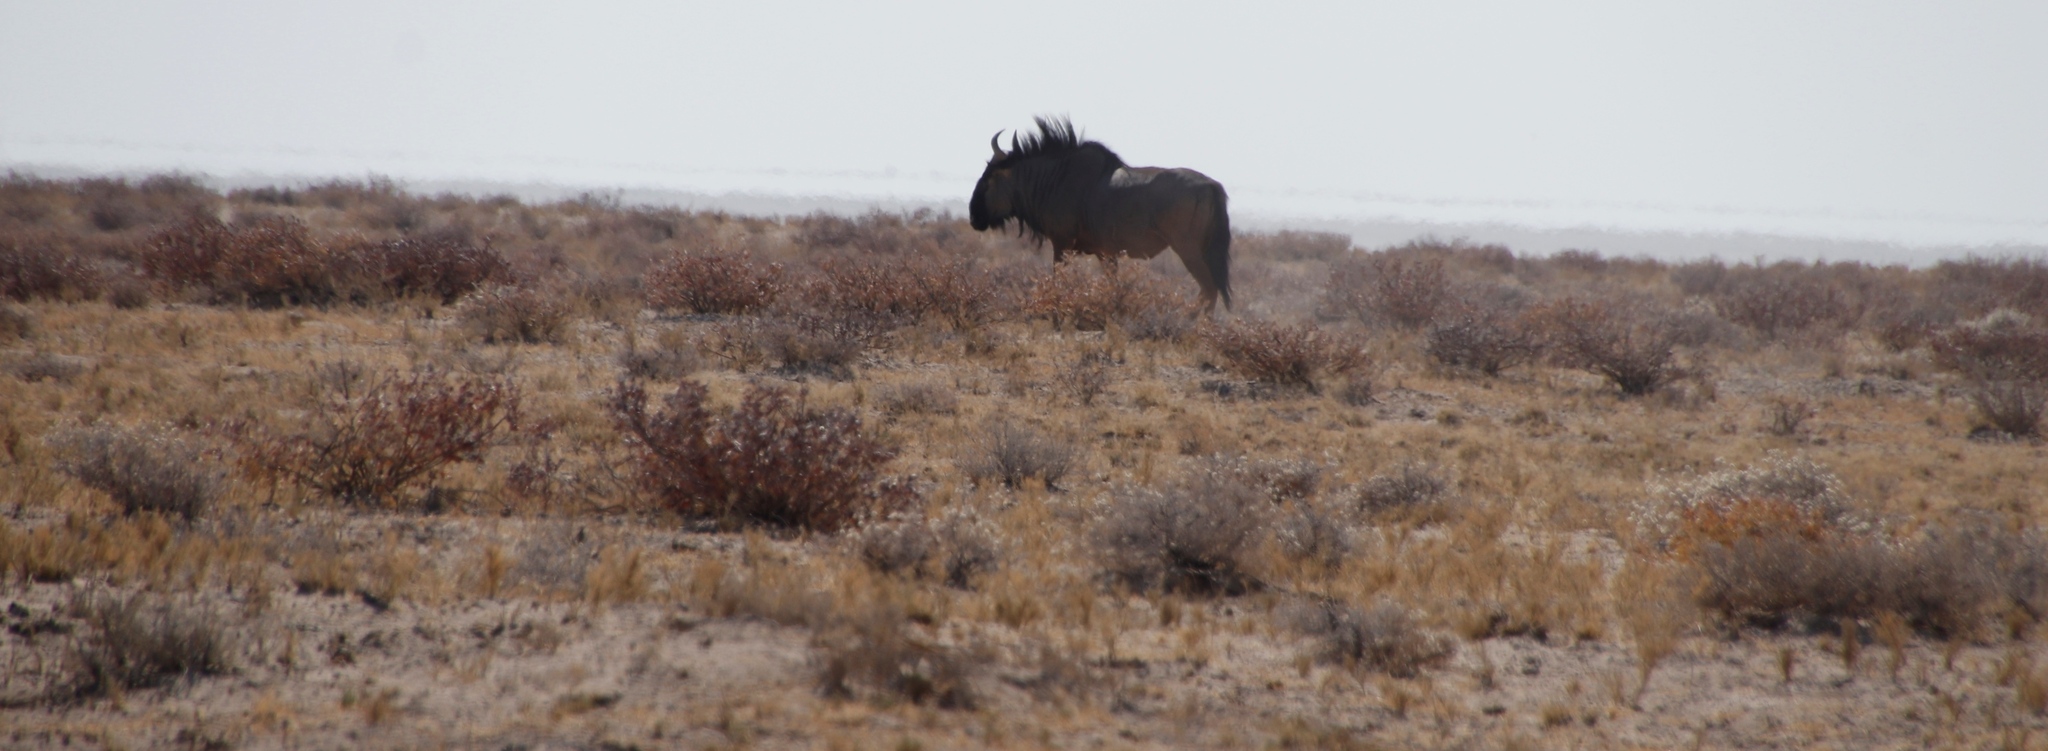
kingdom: Animalia
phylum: Chordata
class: Mammalia
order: Artiodactyla
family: Bovidae
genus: Connochaetes
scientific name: Connochaetes taurinus
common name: Blue wildebeest
